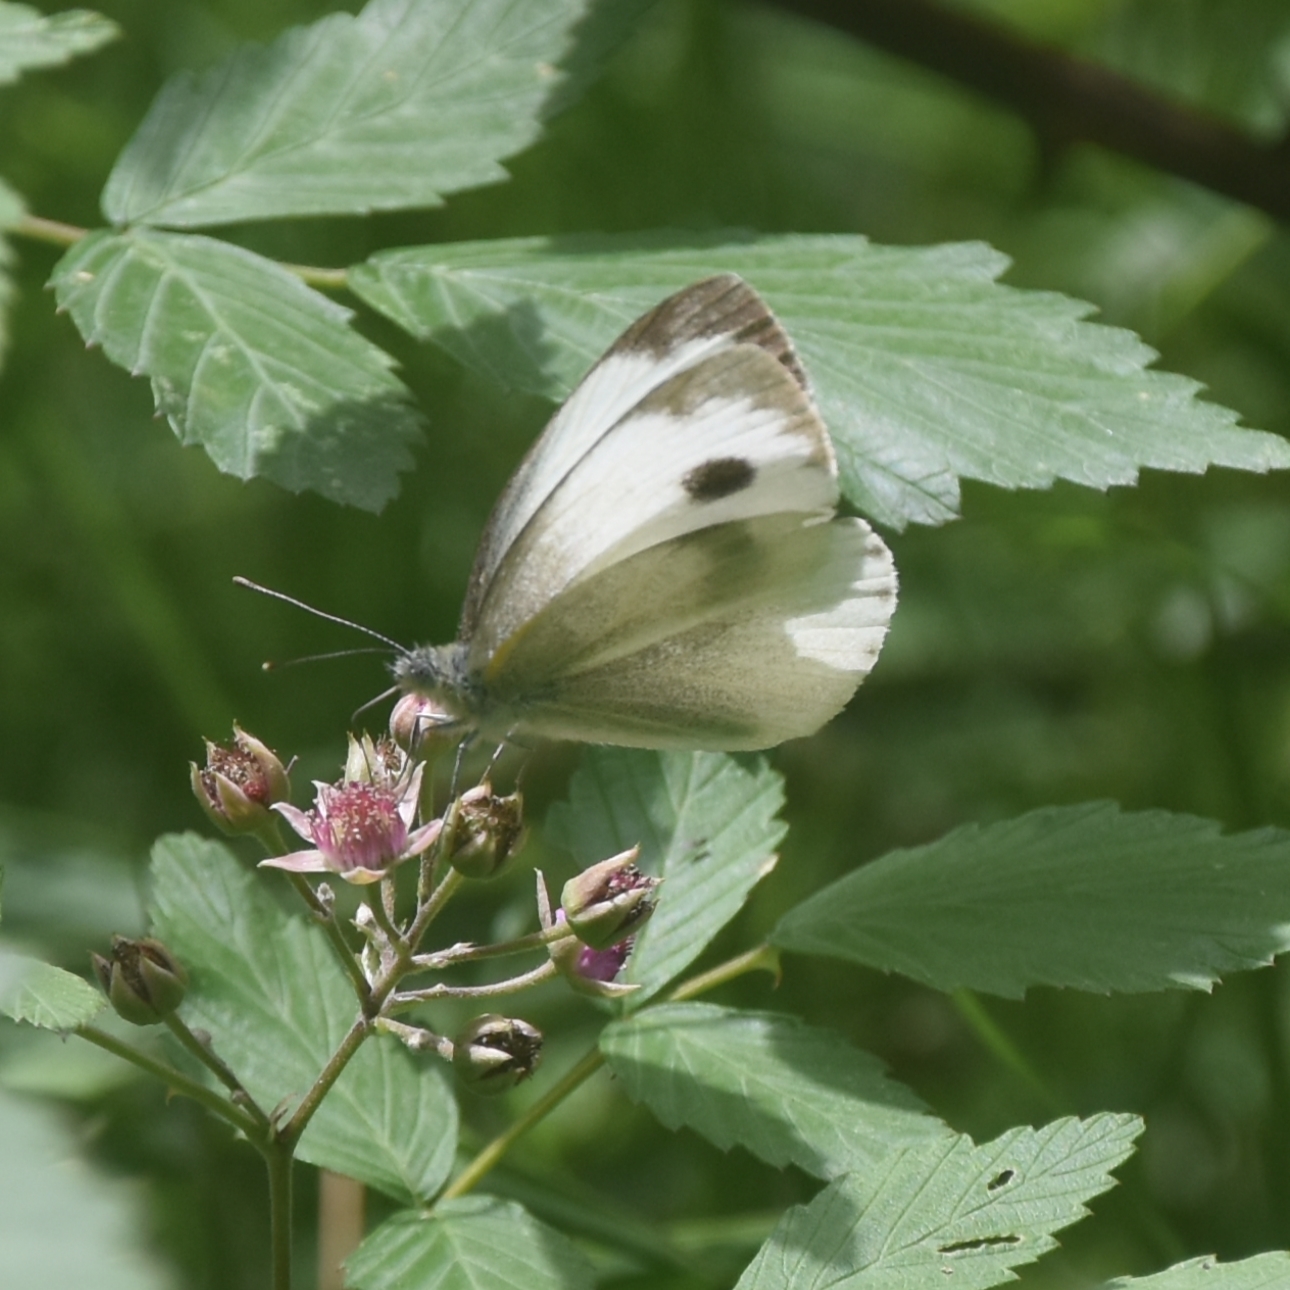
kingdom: Animalia
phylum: Arthropoda
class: Insecta
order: Lepidoptera
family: Pieridae
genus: Pieris
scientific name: Pieris canidia
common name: Indian cabbage white
